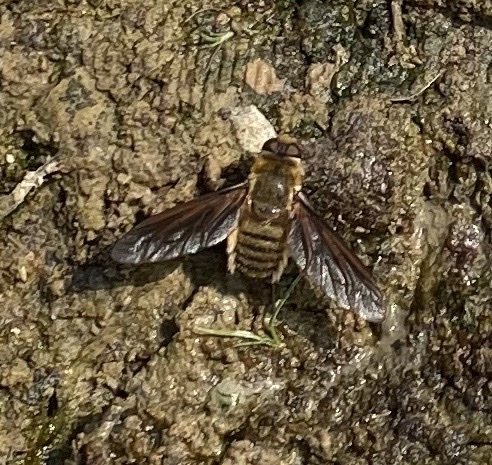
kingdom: Animalia
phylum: Arthropoda
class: Insecta
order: Diptera
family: Bombyliidae
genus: Poecilanthrax
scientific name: Poecilanthrax lucifer
